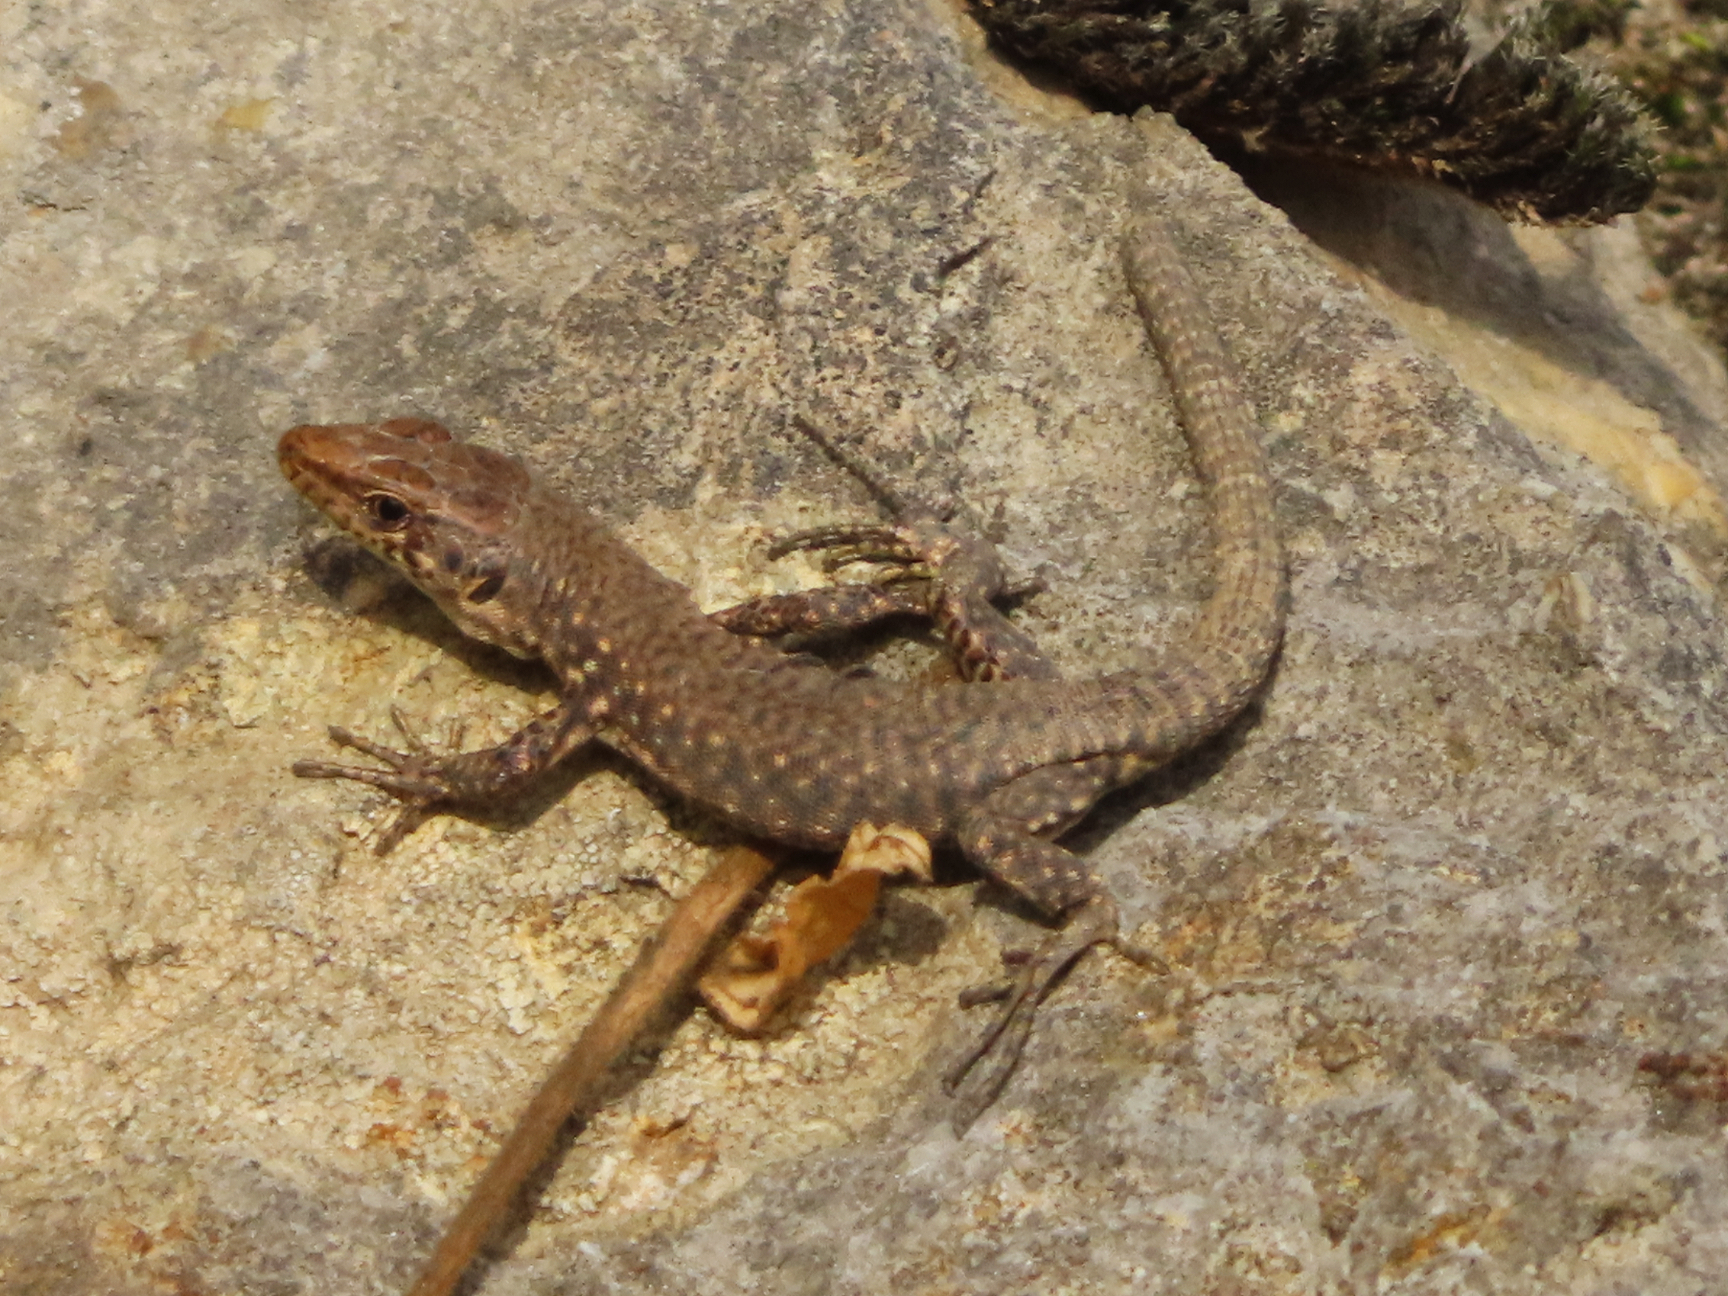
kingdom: Animalia
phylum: Chordata
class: Squamata
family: Lacertidae
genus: Darevskia
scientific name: Darevskia bithynica
